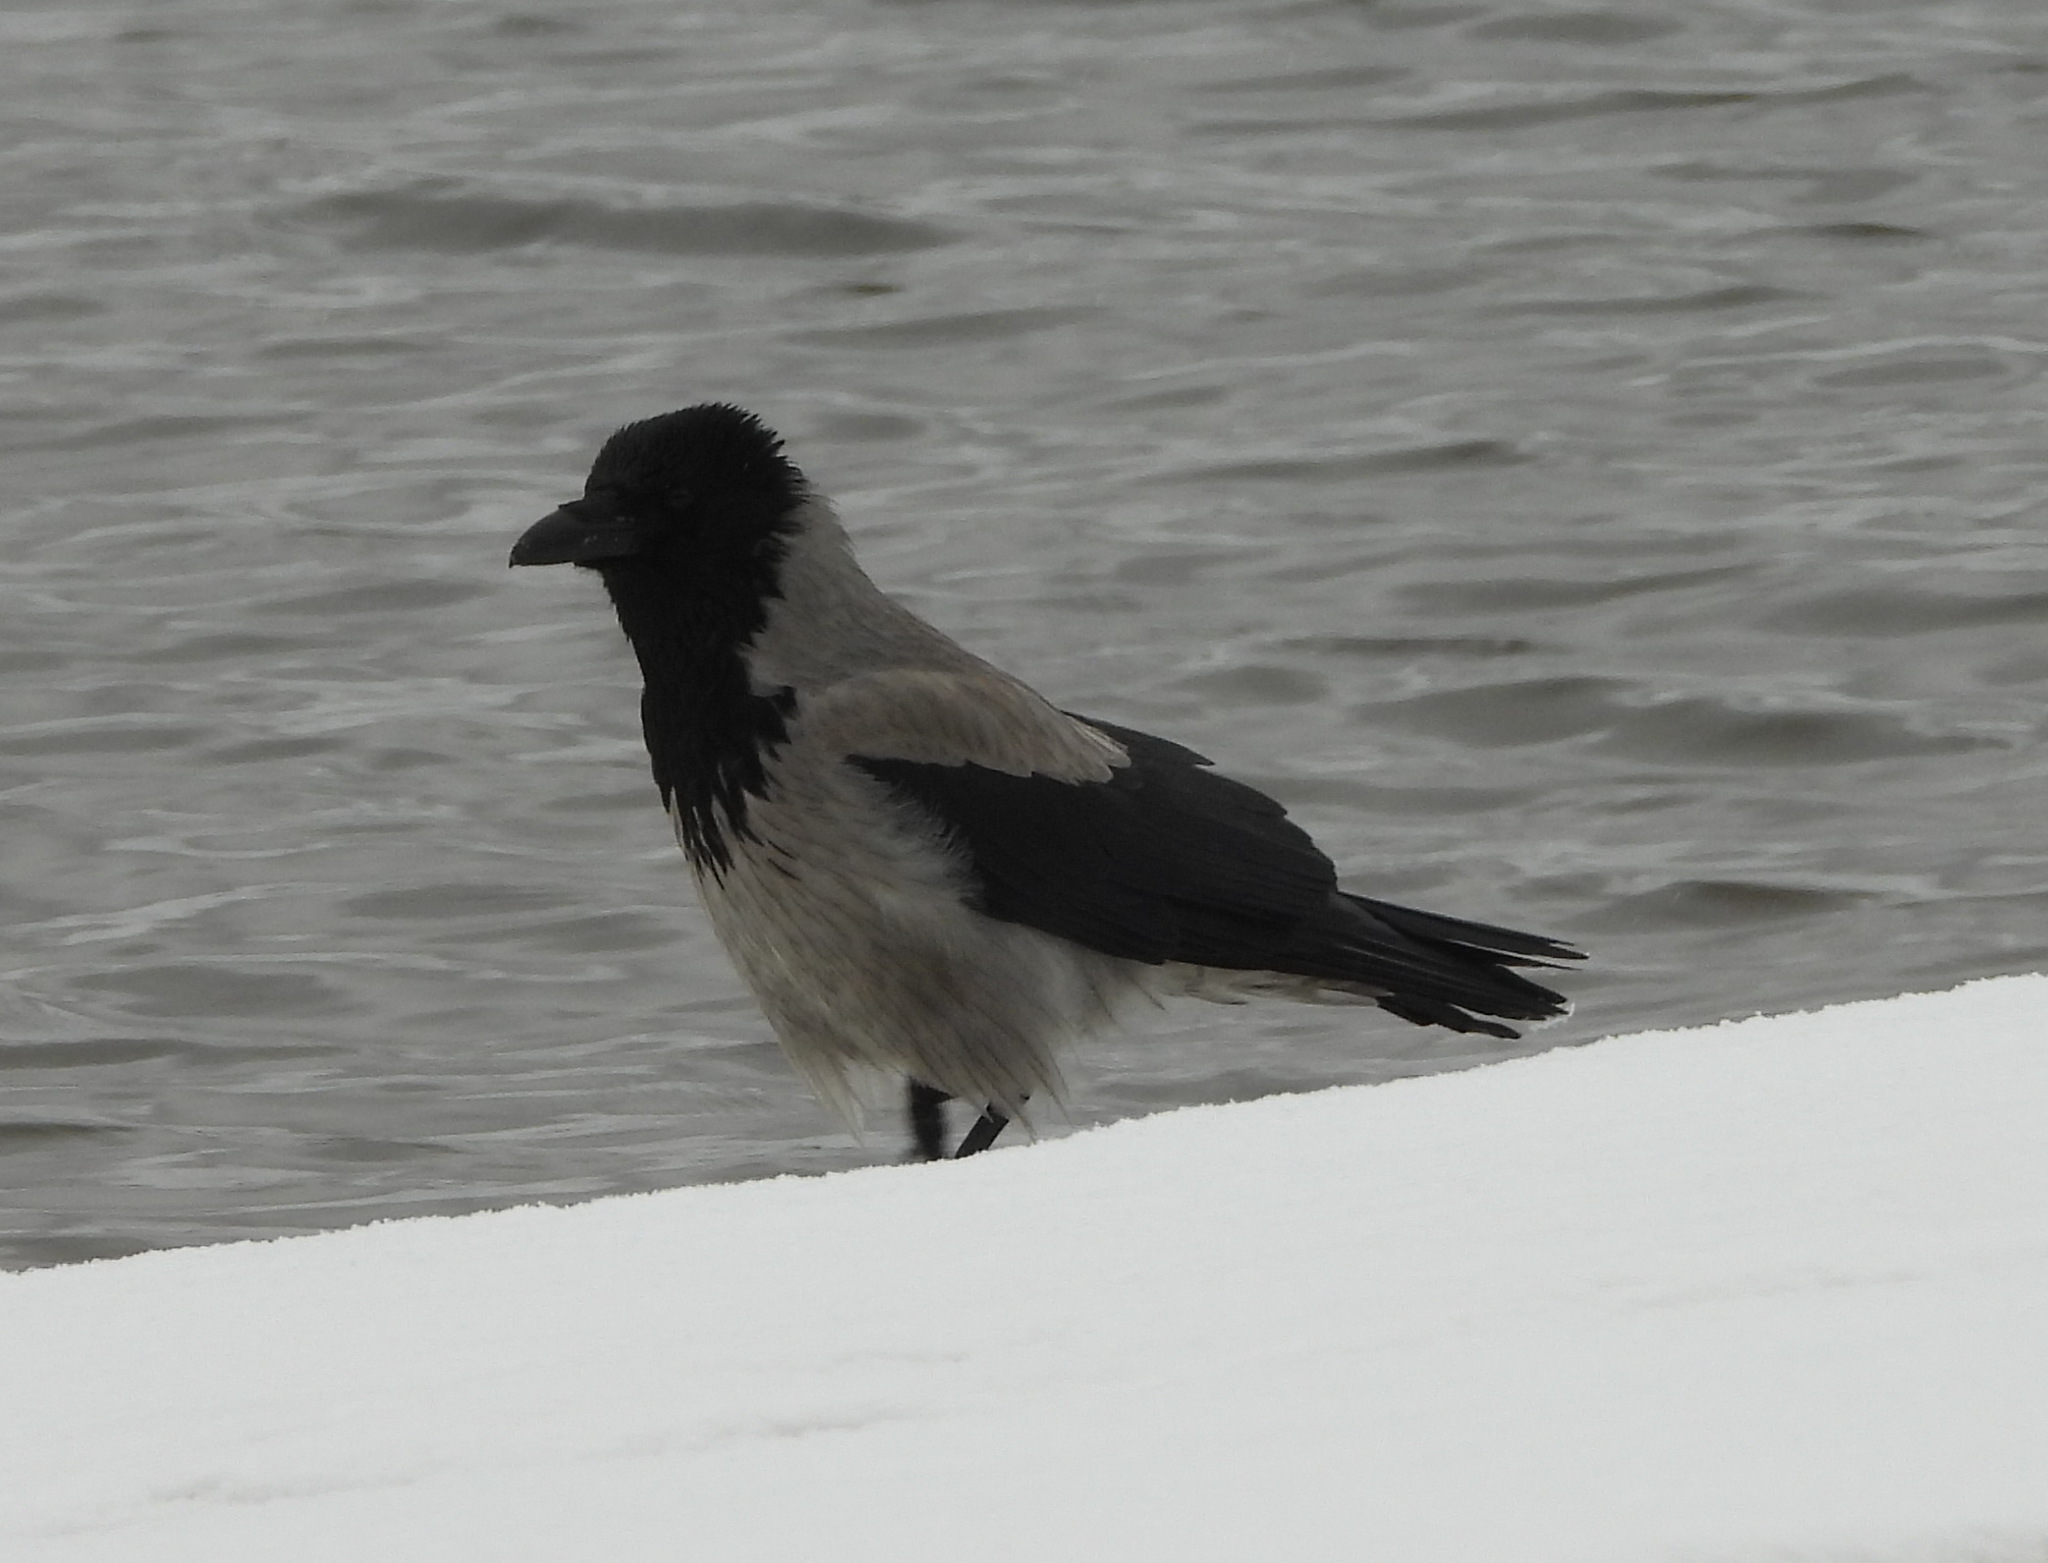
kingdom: Animalia
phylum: Chordata
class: Aves
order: Passeriformes
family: Corvidae
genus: Corvus
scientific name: Corvus cornix
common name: Hooded crow
